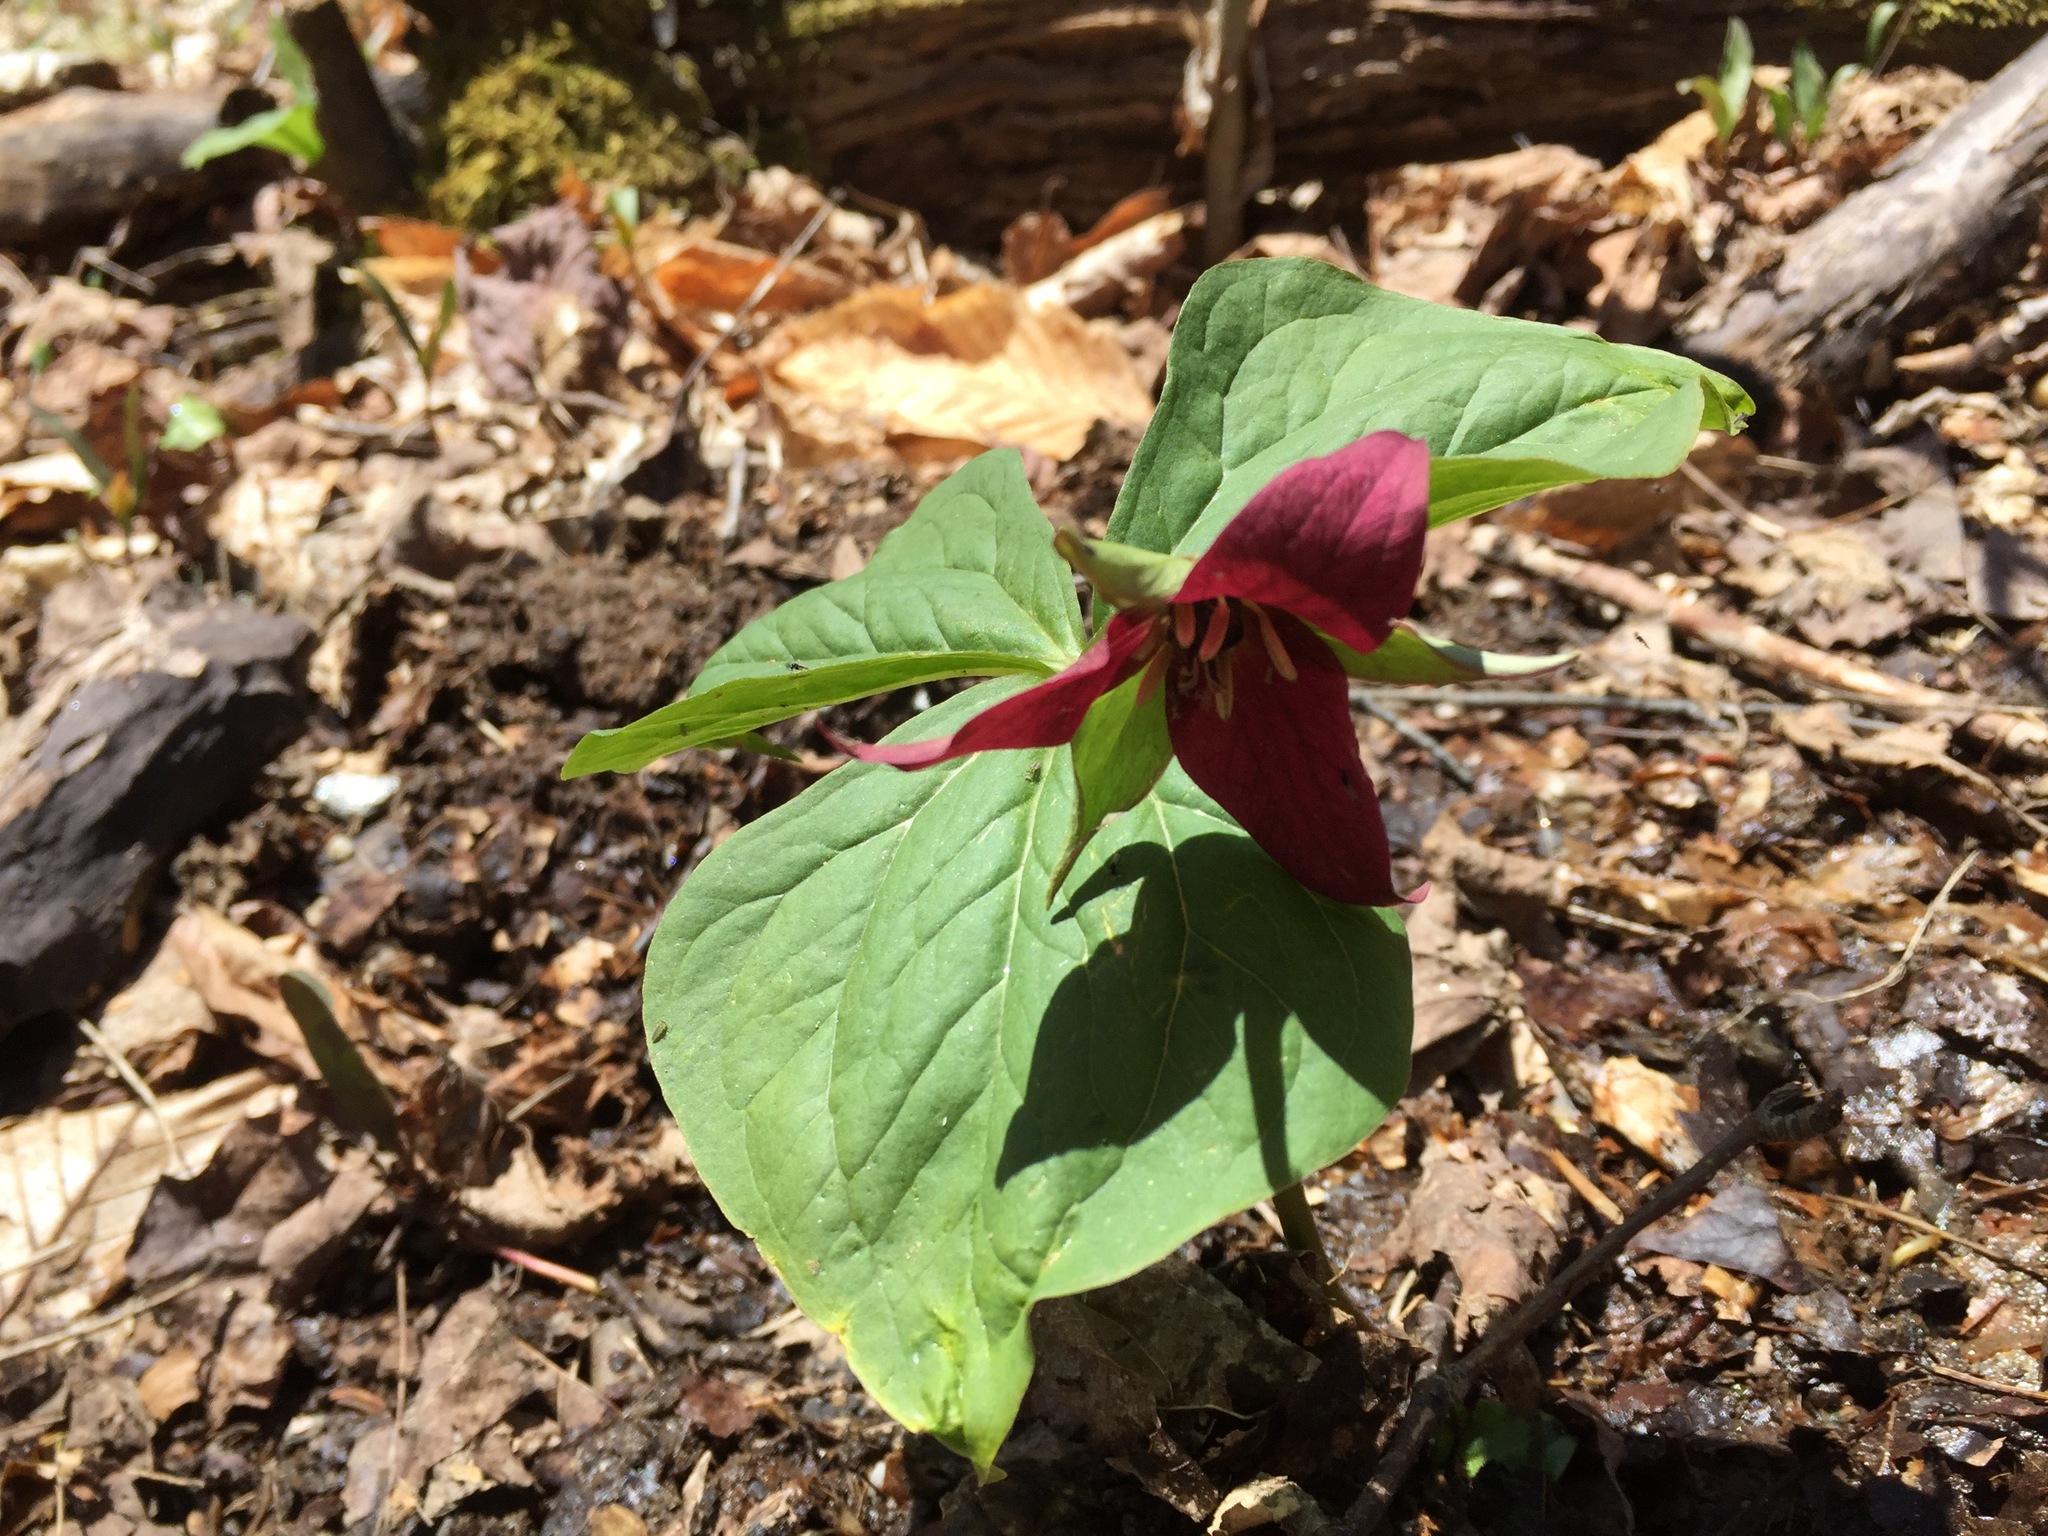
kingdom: Plantae
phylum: Tracheophyta
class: Liliopsida
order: Liliales
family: Melanthiaceae
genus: Trillium
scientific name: Trillium erectum
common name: Purple trillium
